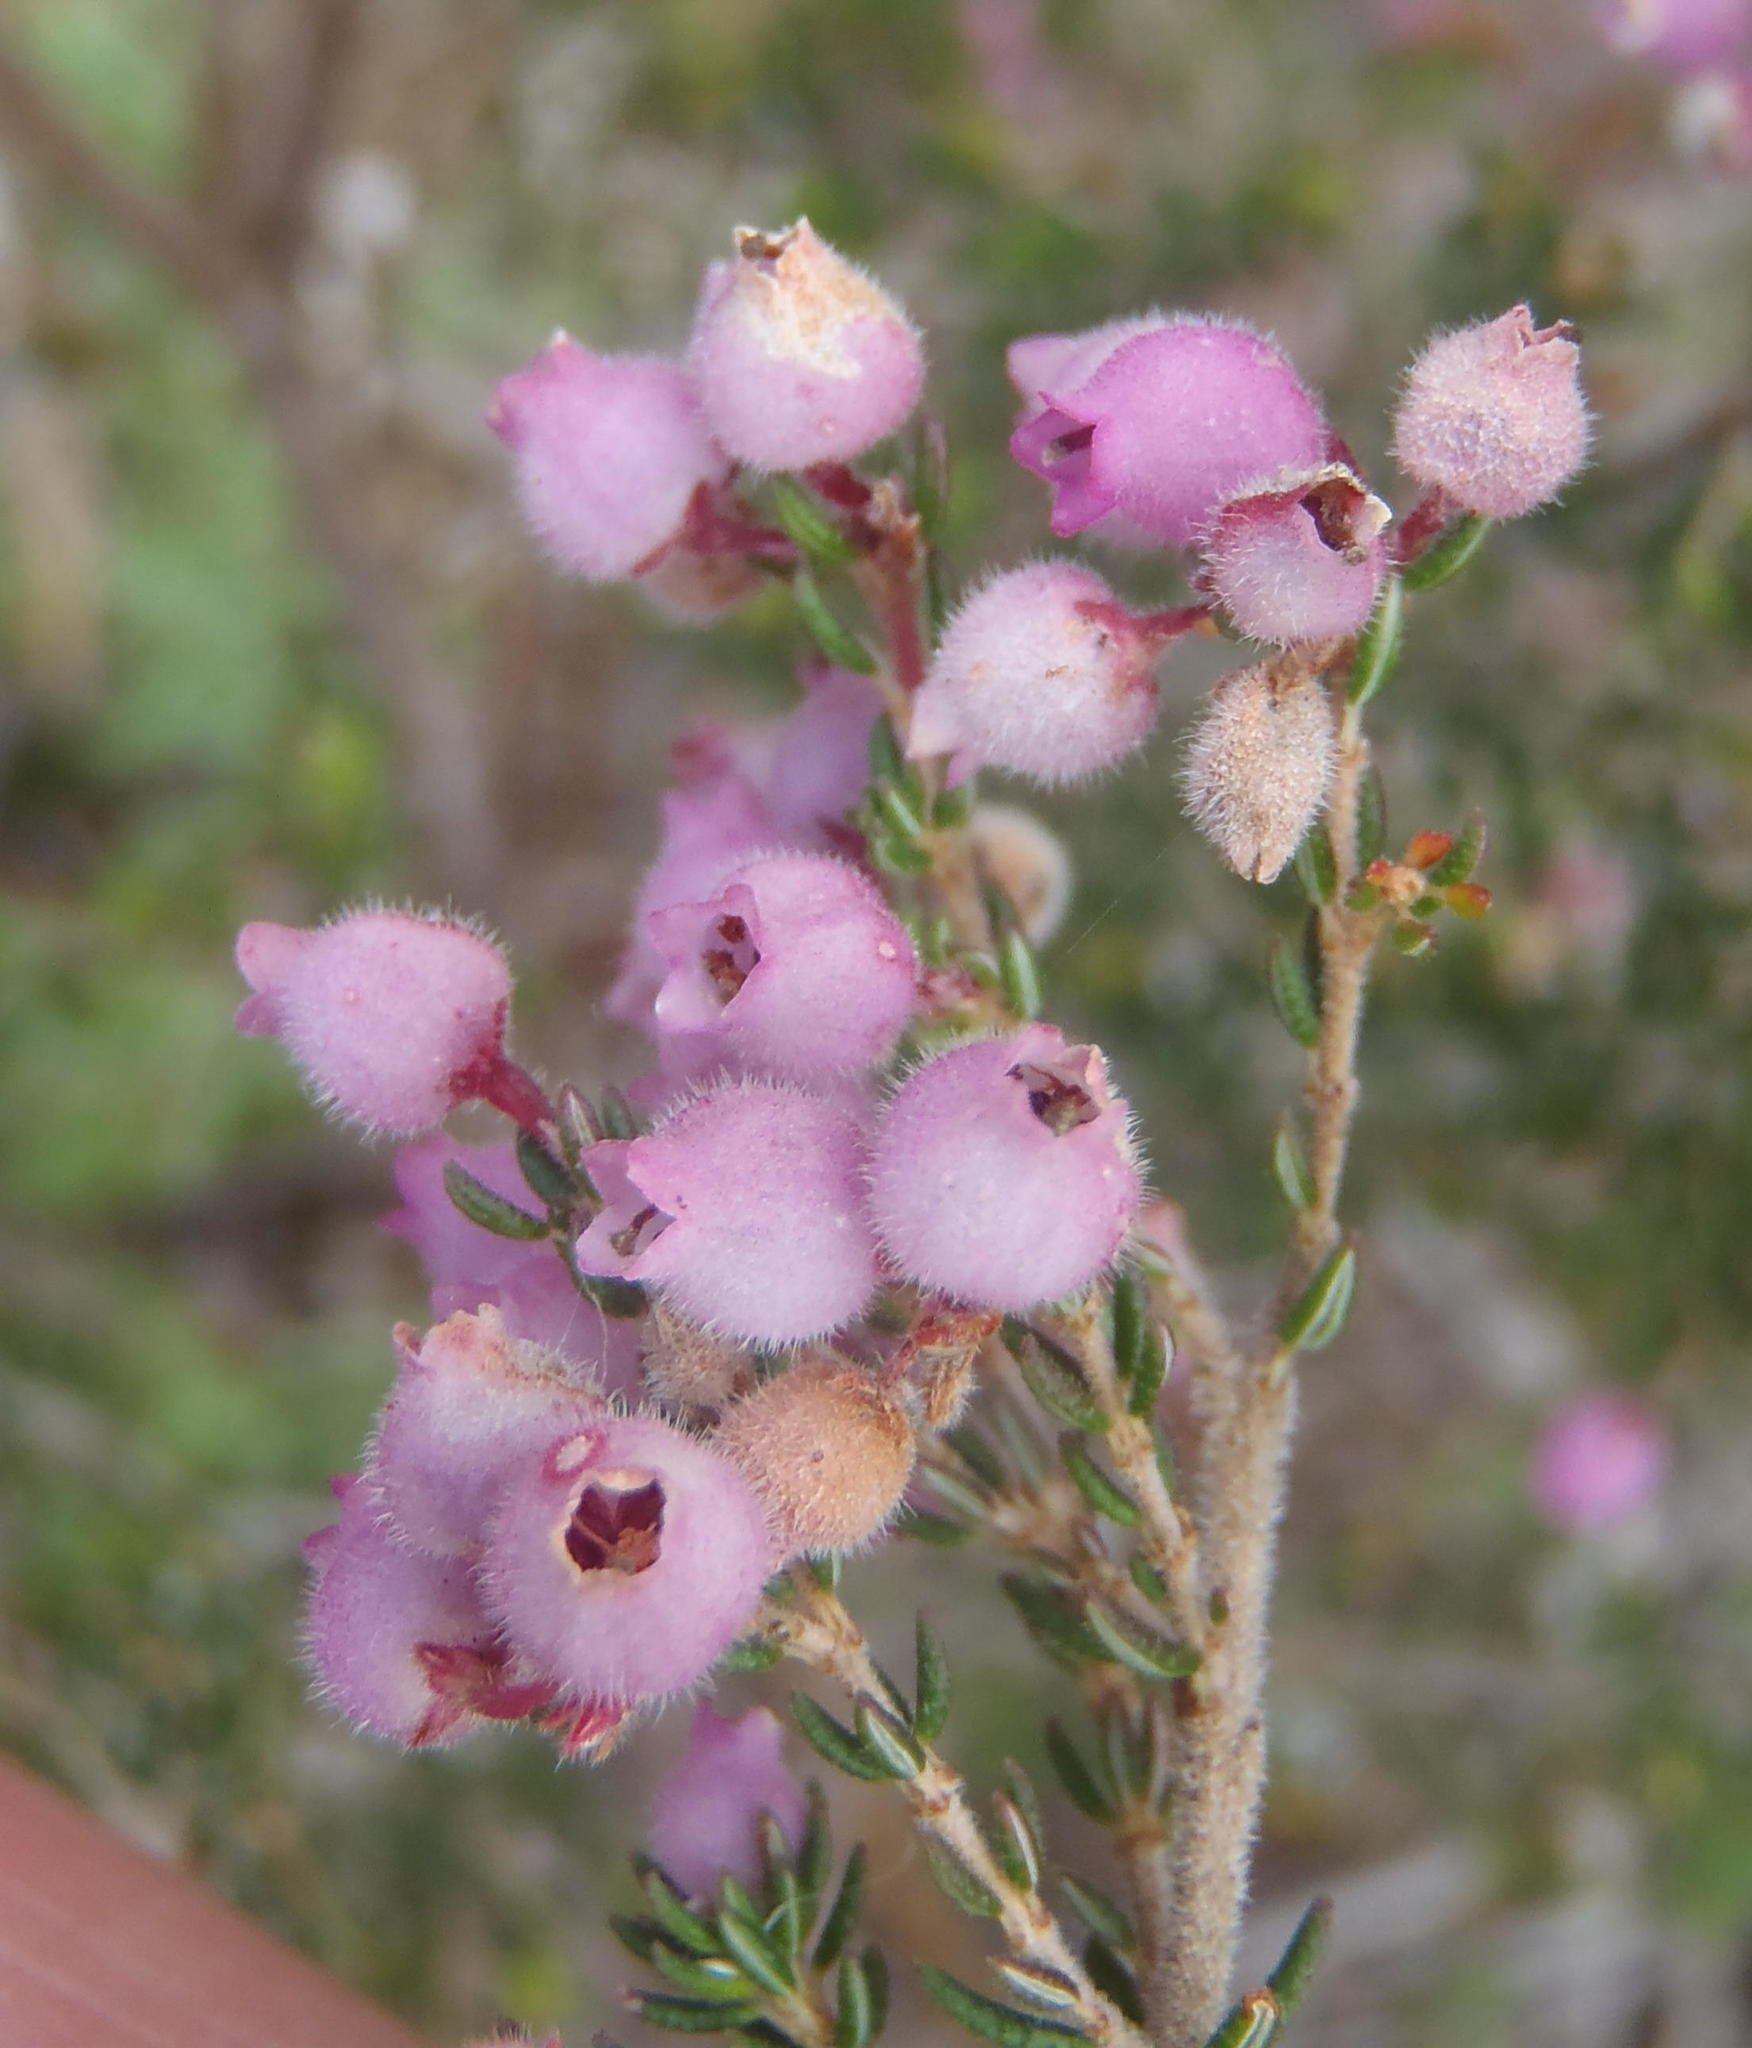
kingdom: Plantae
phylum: Tracheophyta
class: Magnoliopsida
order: Ericales
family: Ericaceae
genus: Erica
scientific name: Erica hirtiflora
